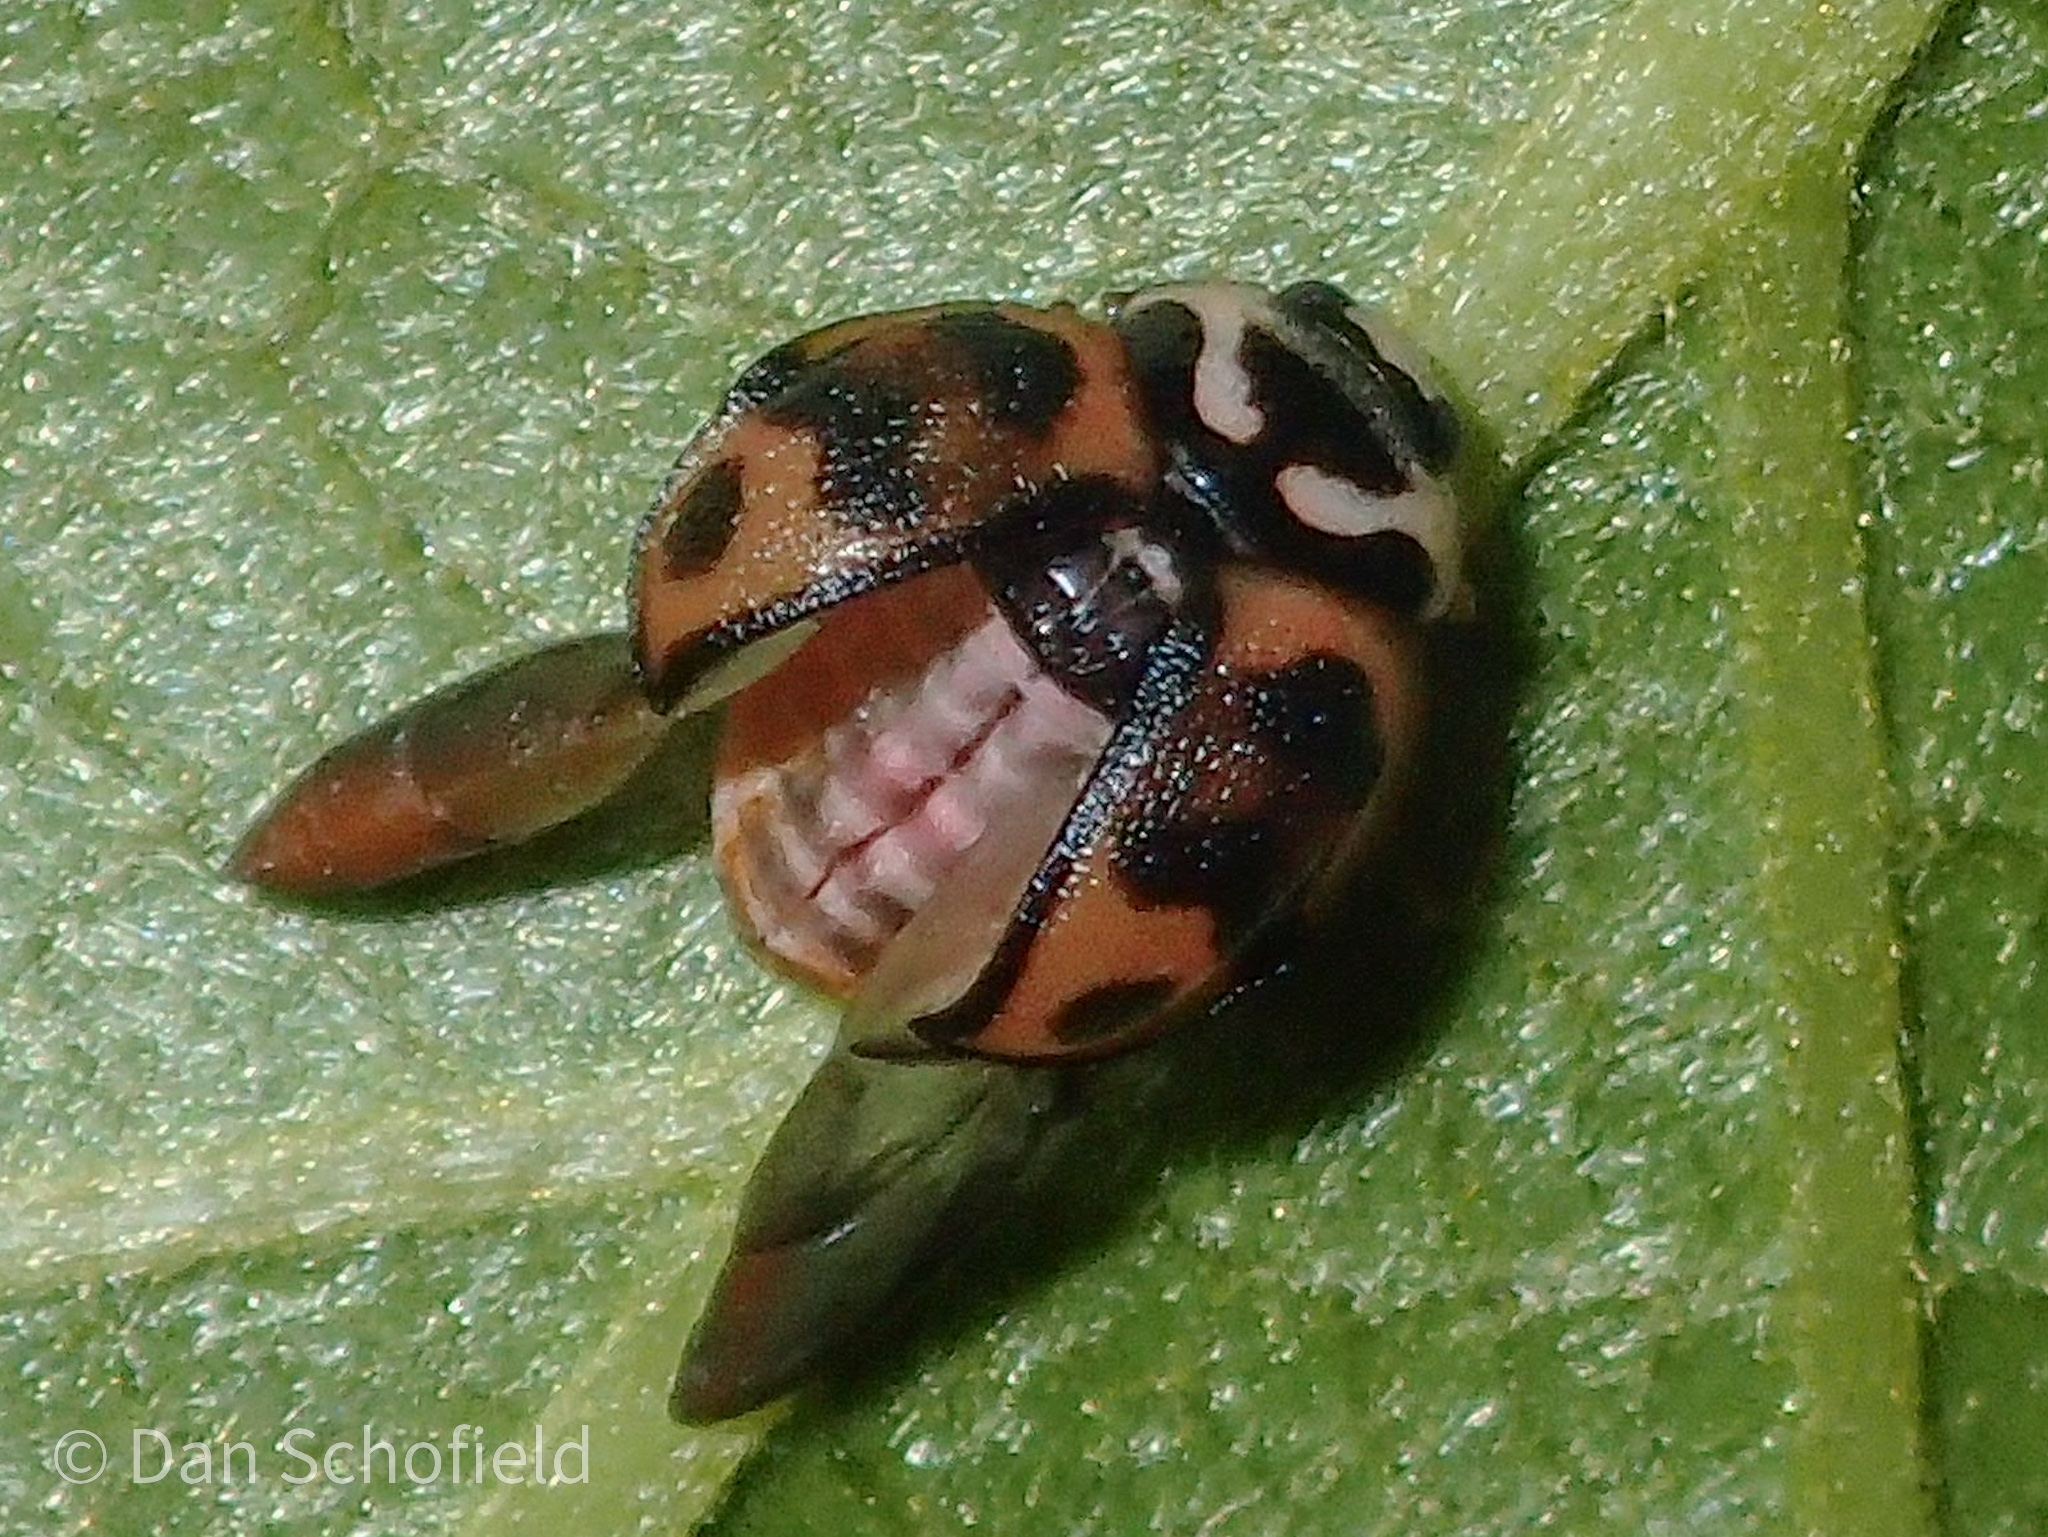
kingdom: Animalia
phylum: Arthropoda
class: Insecta
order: Coleoptera
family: Coccinellidae
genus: Cheilomenes
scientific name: Cheilomenes sexmaculata
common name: Ladybird beetle
